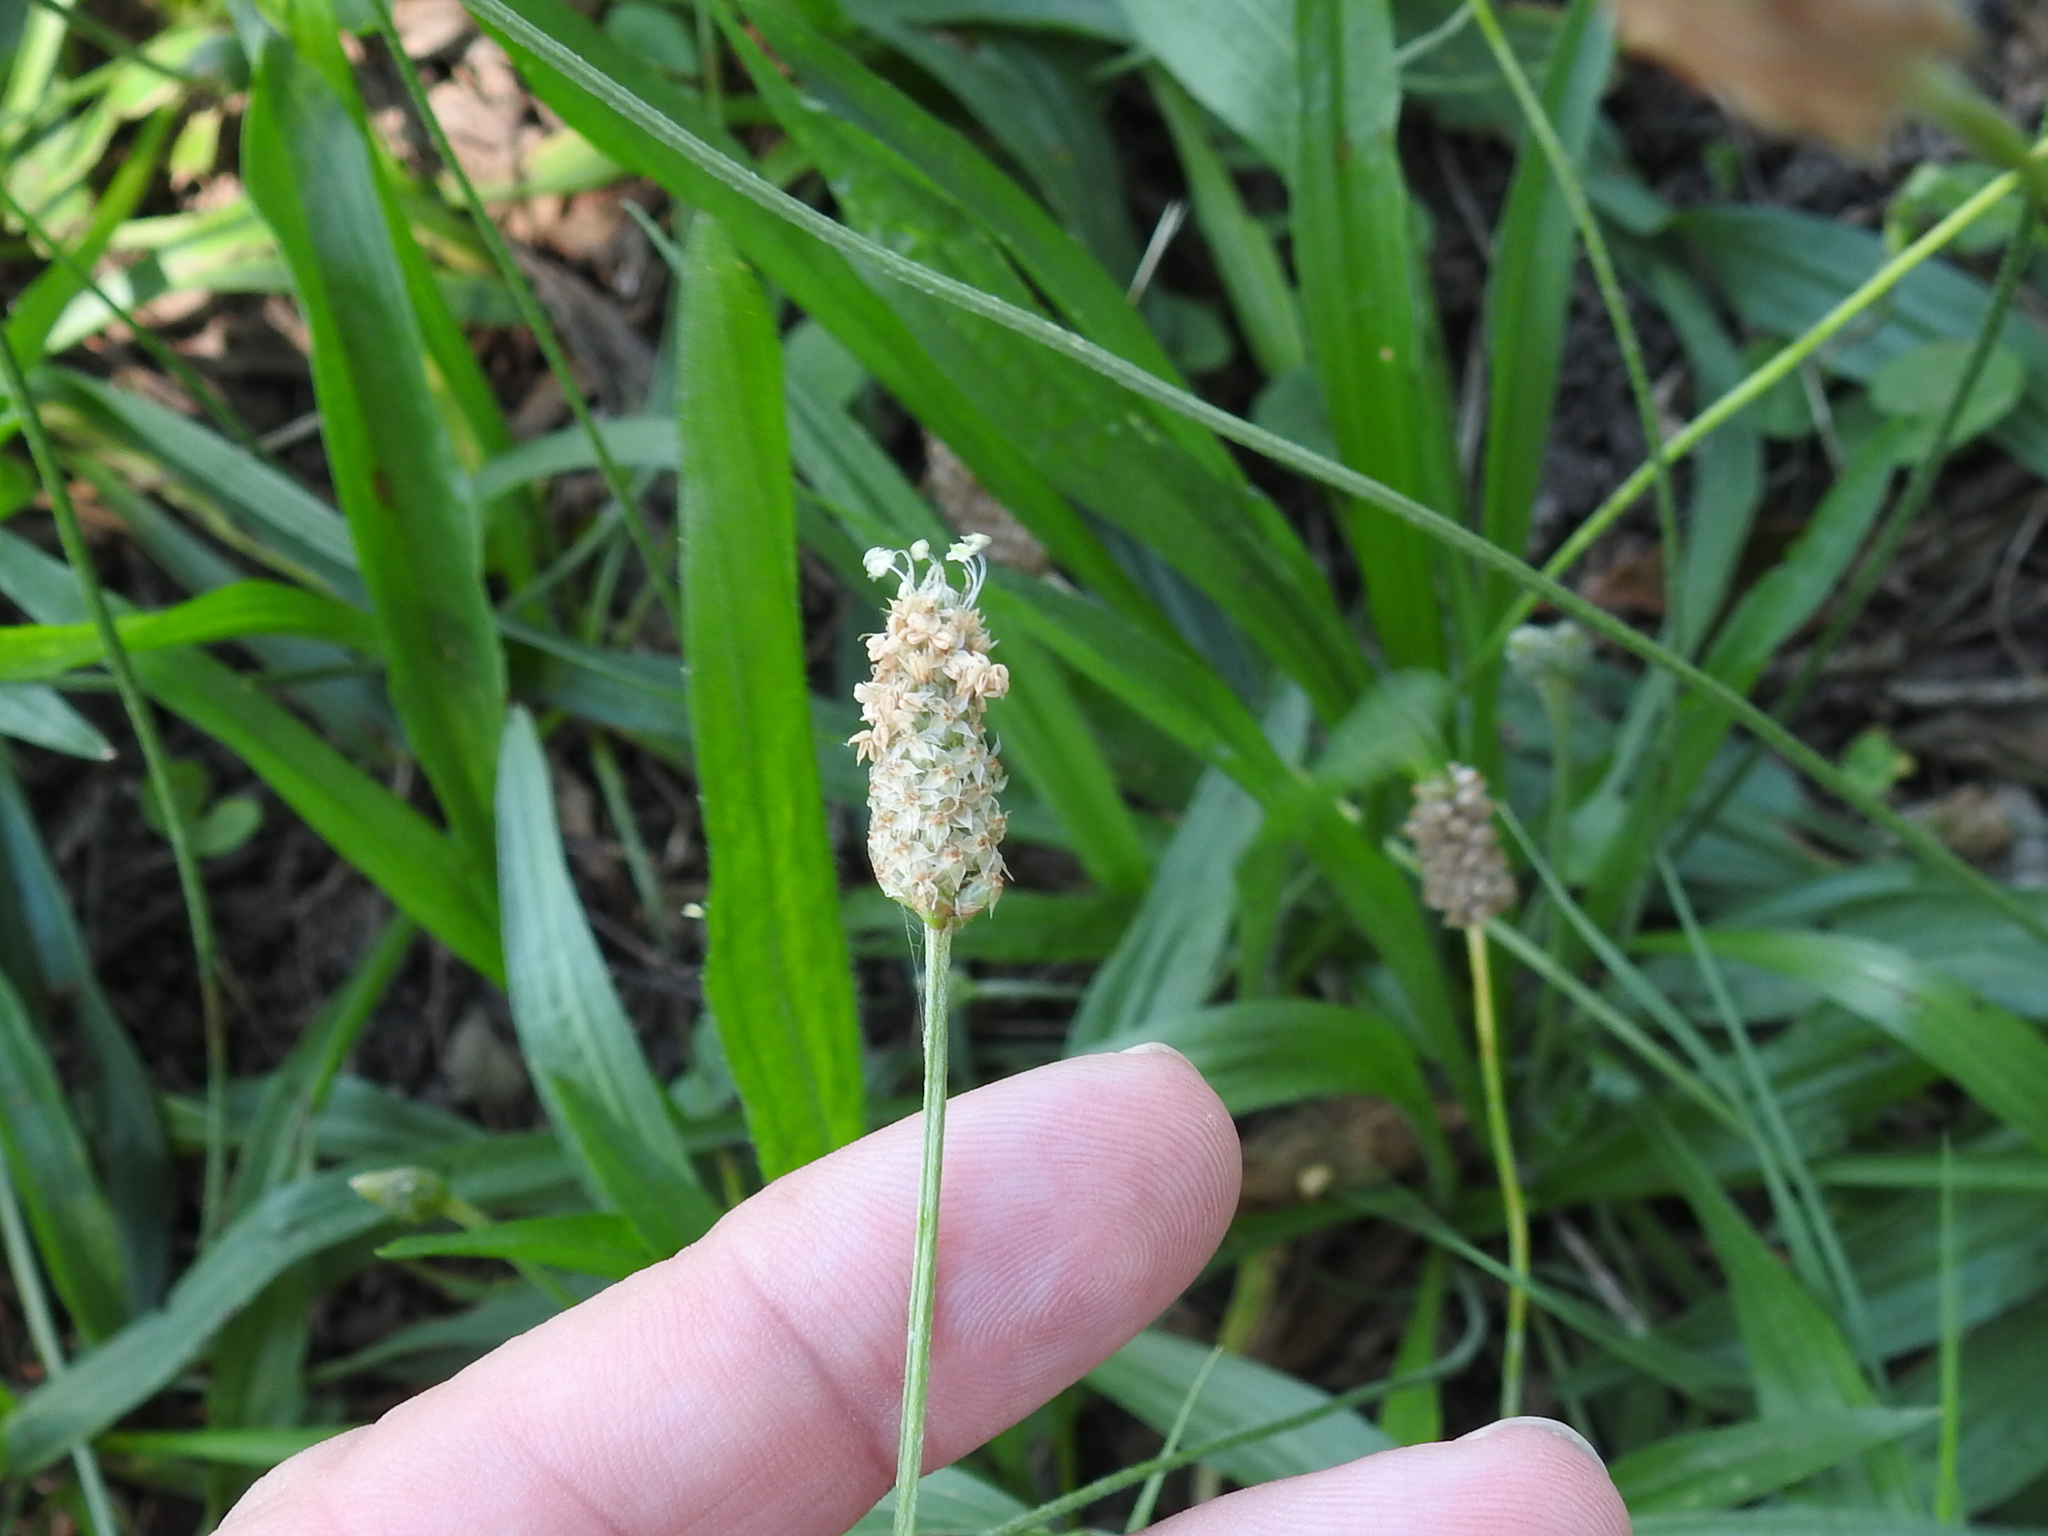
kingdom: Plantae
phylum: Tracheophyta
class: Magnoliopsida
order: Lamiales
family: Plantaginaceae
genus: Plantago
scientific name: Plantago lanceolata
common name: Ribwort plantain
